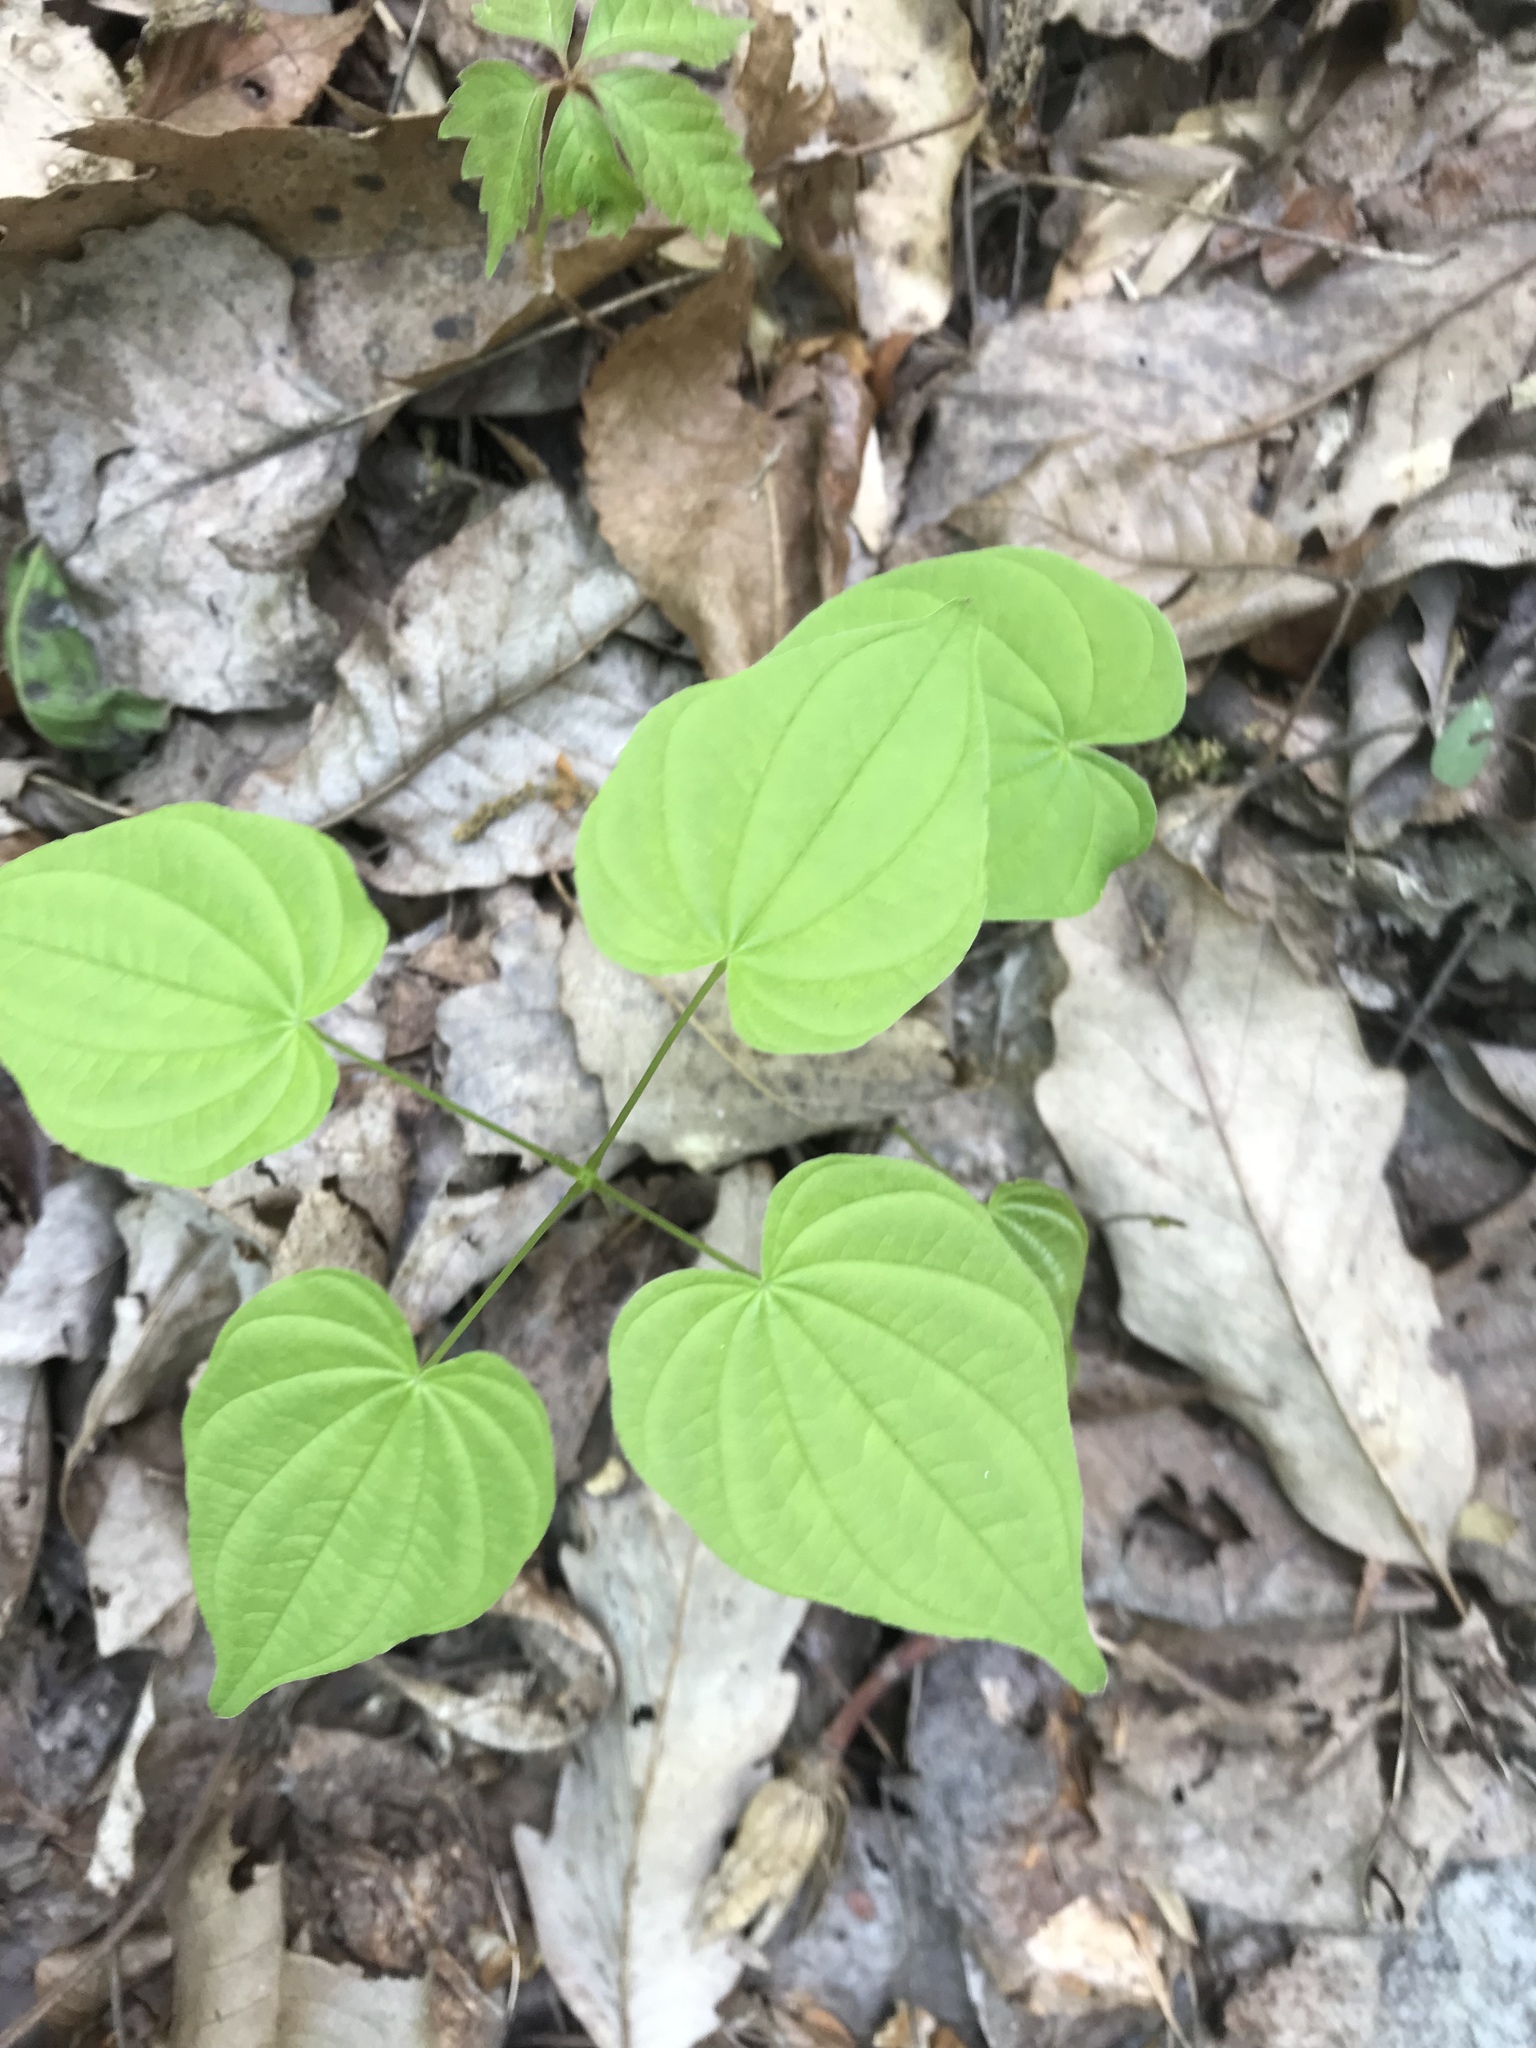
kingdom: Plantae
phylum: Tracheophyta
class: Liliopsida
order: Dioscoreales
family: Dioscoreaceae
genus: Dioscorea
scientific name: Dioscorea villosa
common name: Wild yam
